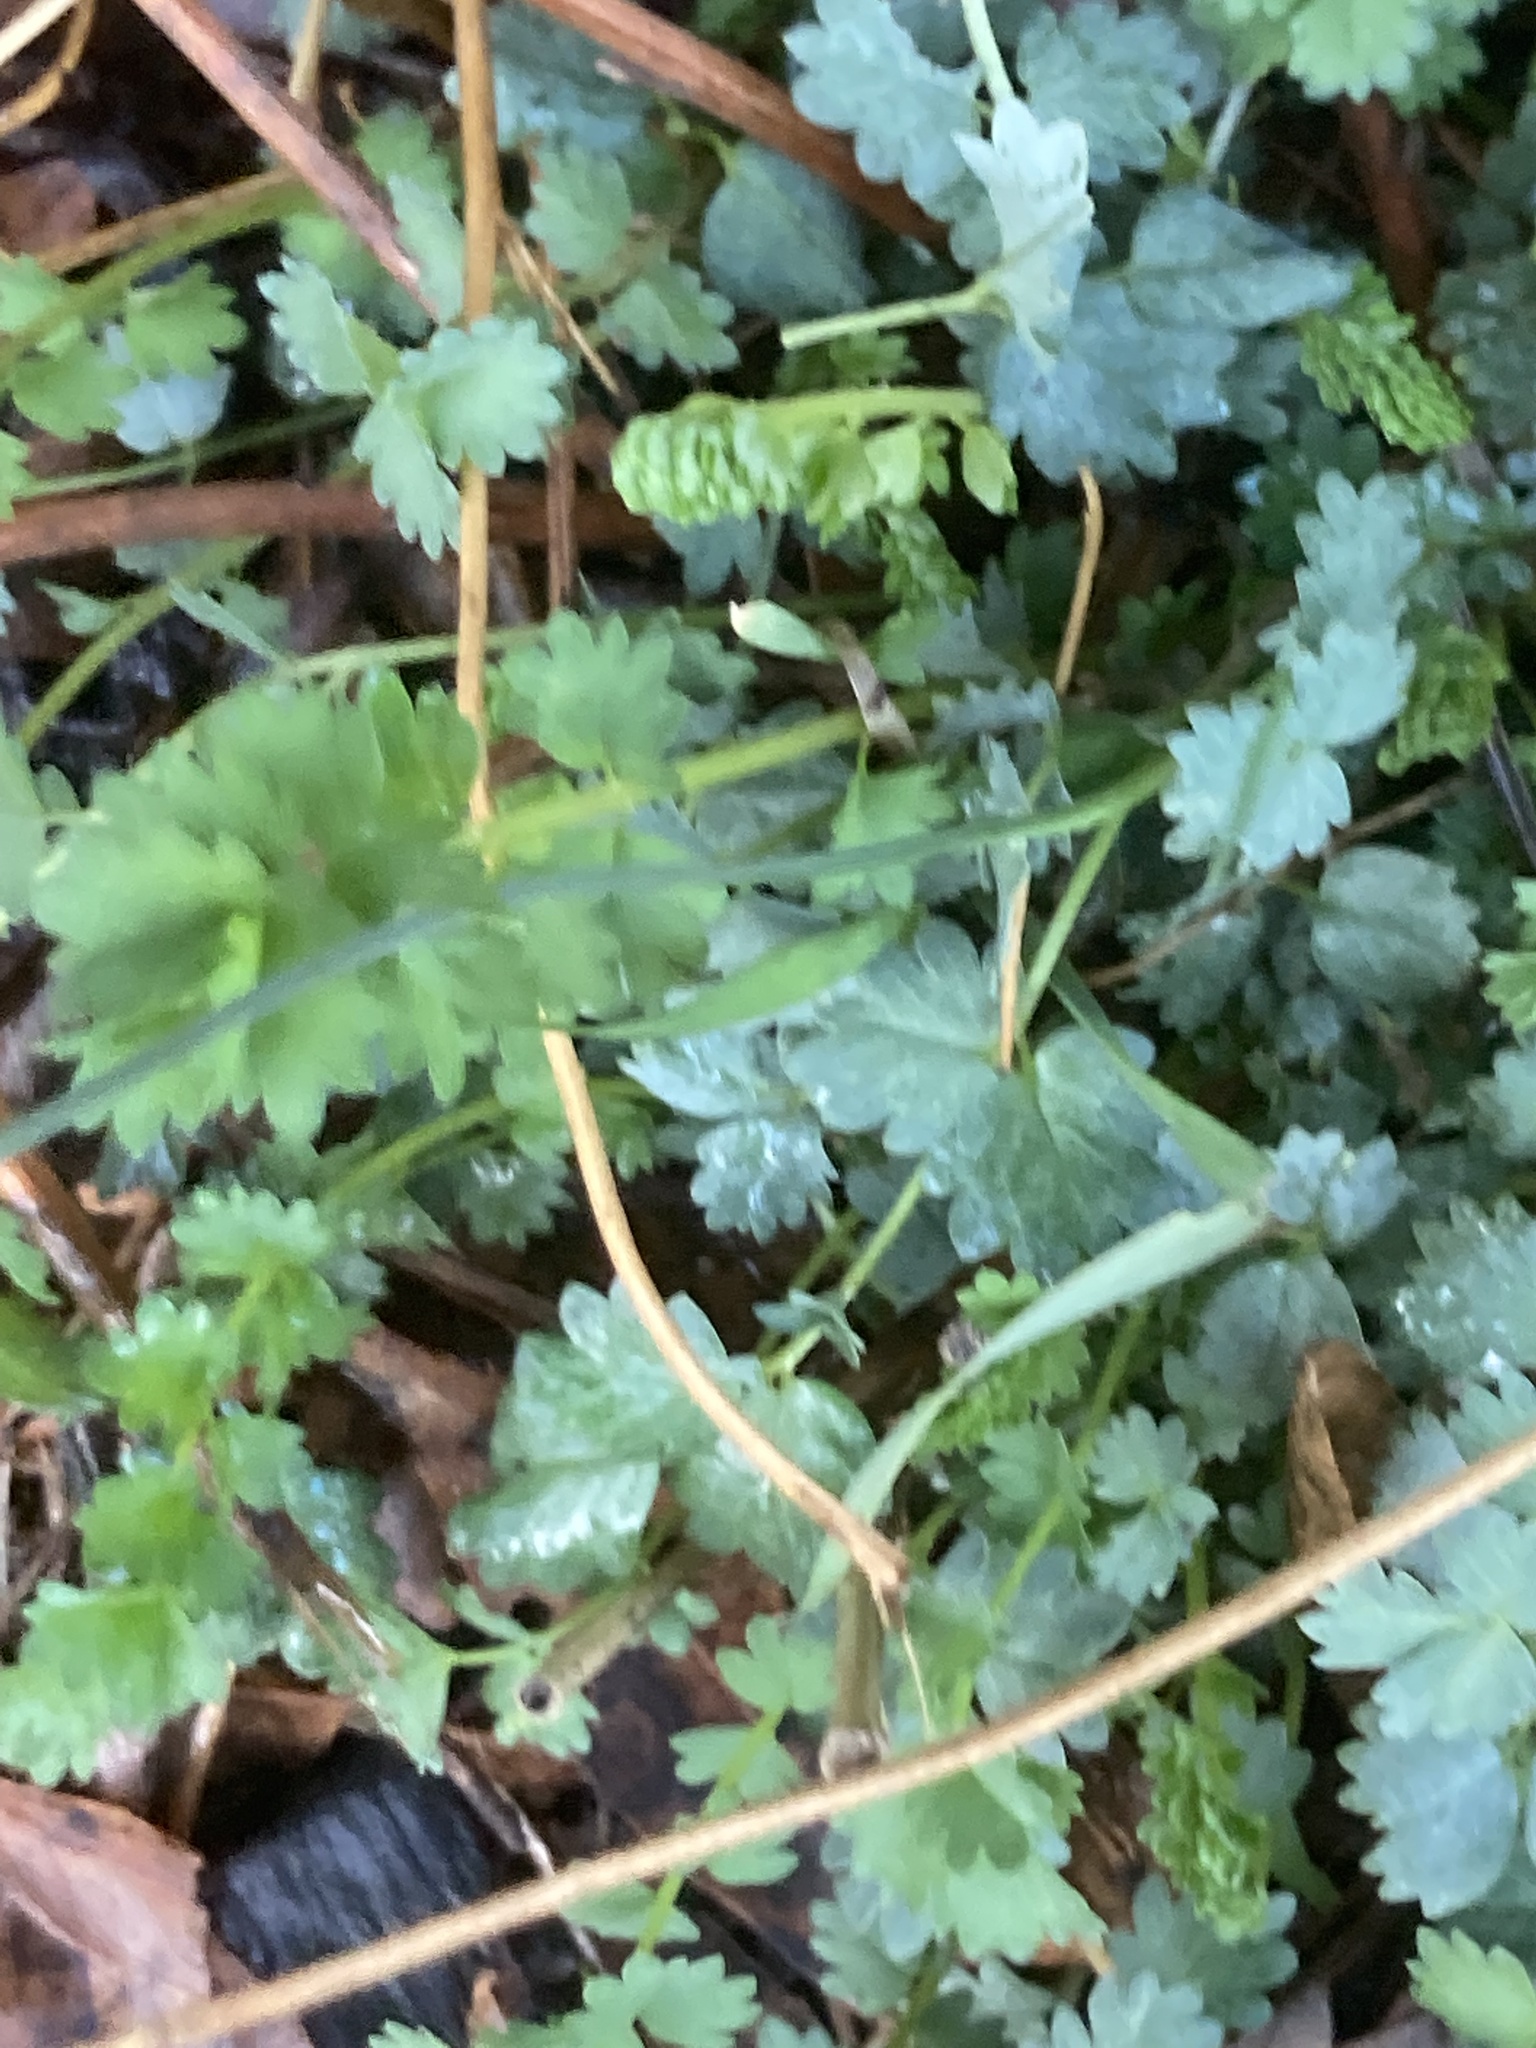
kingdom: Plantae
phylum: Tracheophyta
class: Magnoliopsida
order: Rosales
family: Rosaceae
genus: Poterium
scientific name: Poterium sanguisorba
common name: Salad burnet
